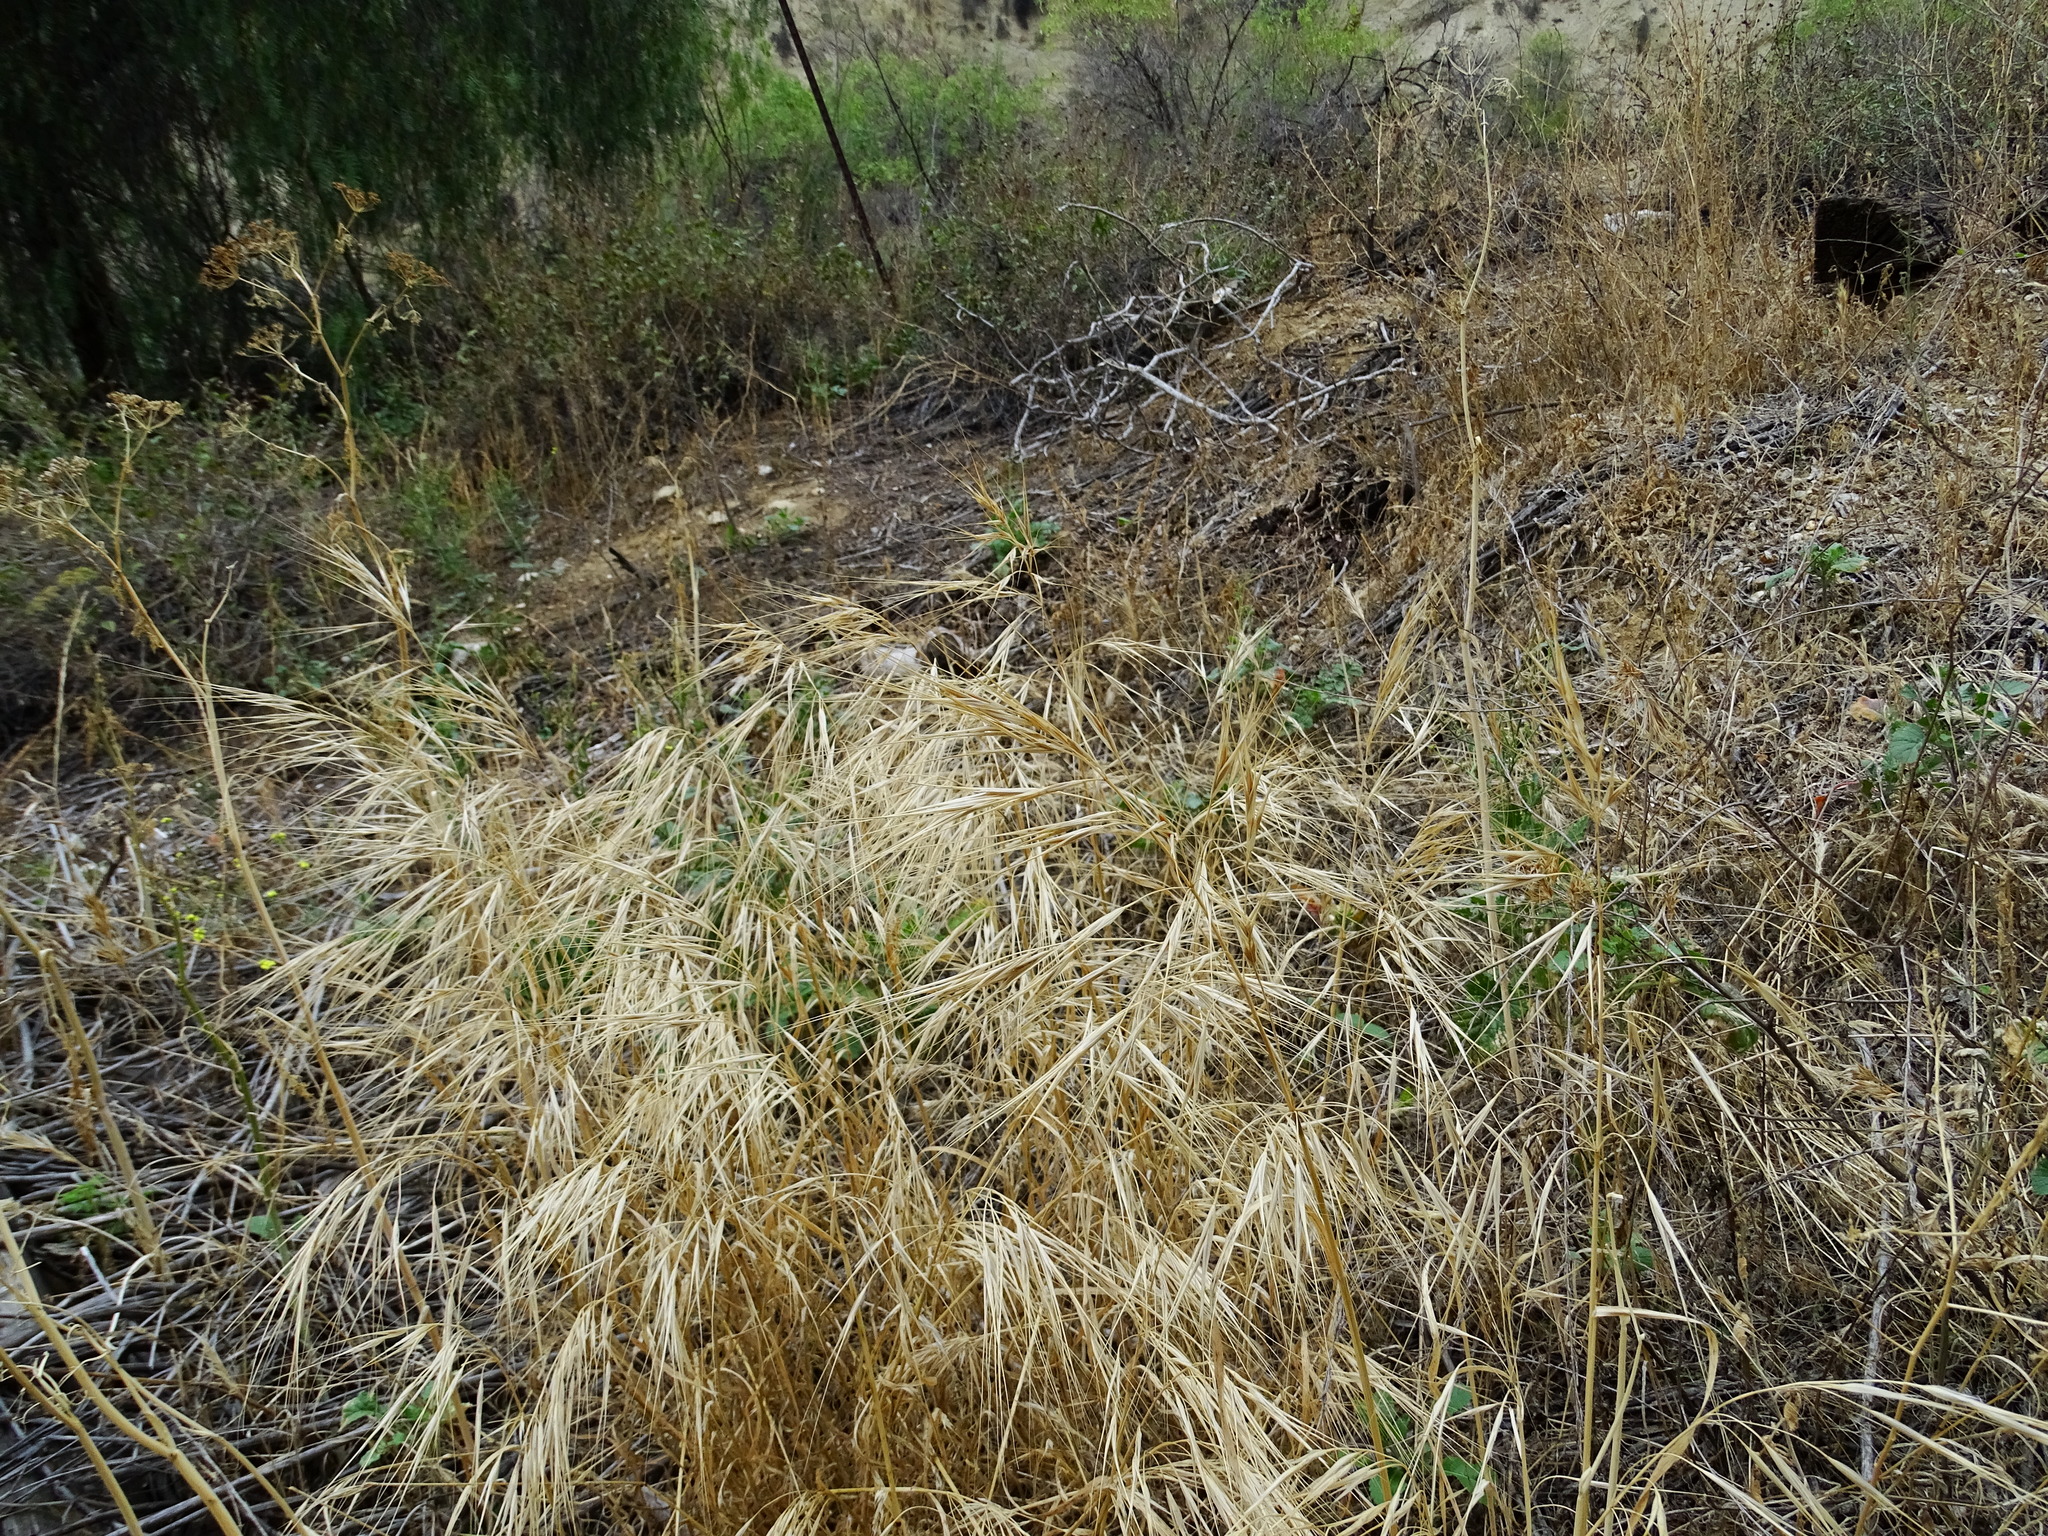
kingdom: Plantae
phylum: Tracheophyta
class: Liliopsida
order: Poales
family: Poaceae
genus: Bromus
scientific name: Bromus diandrus
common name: Ripgut brome
